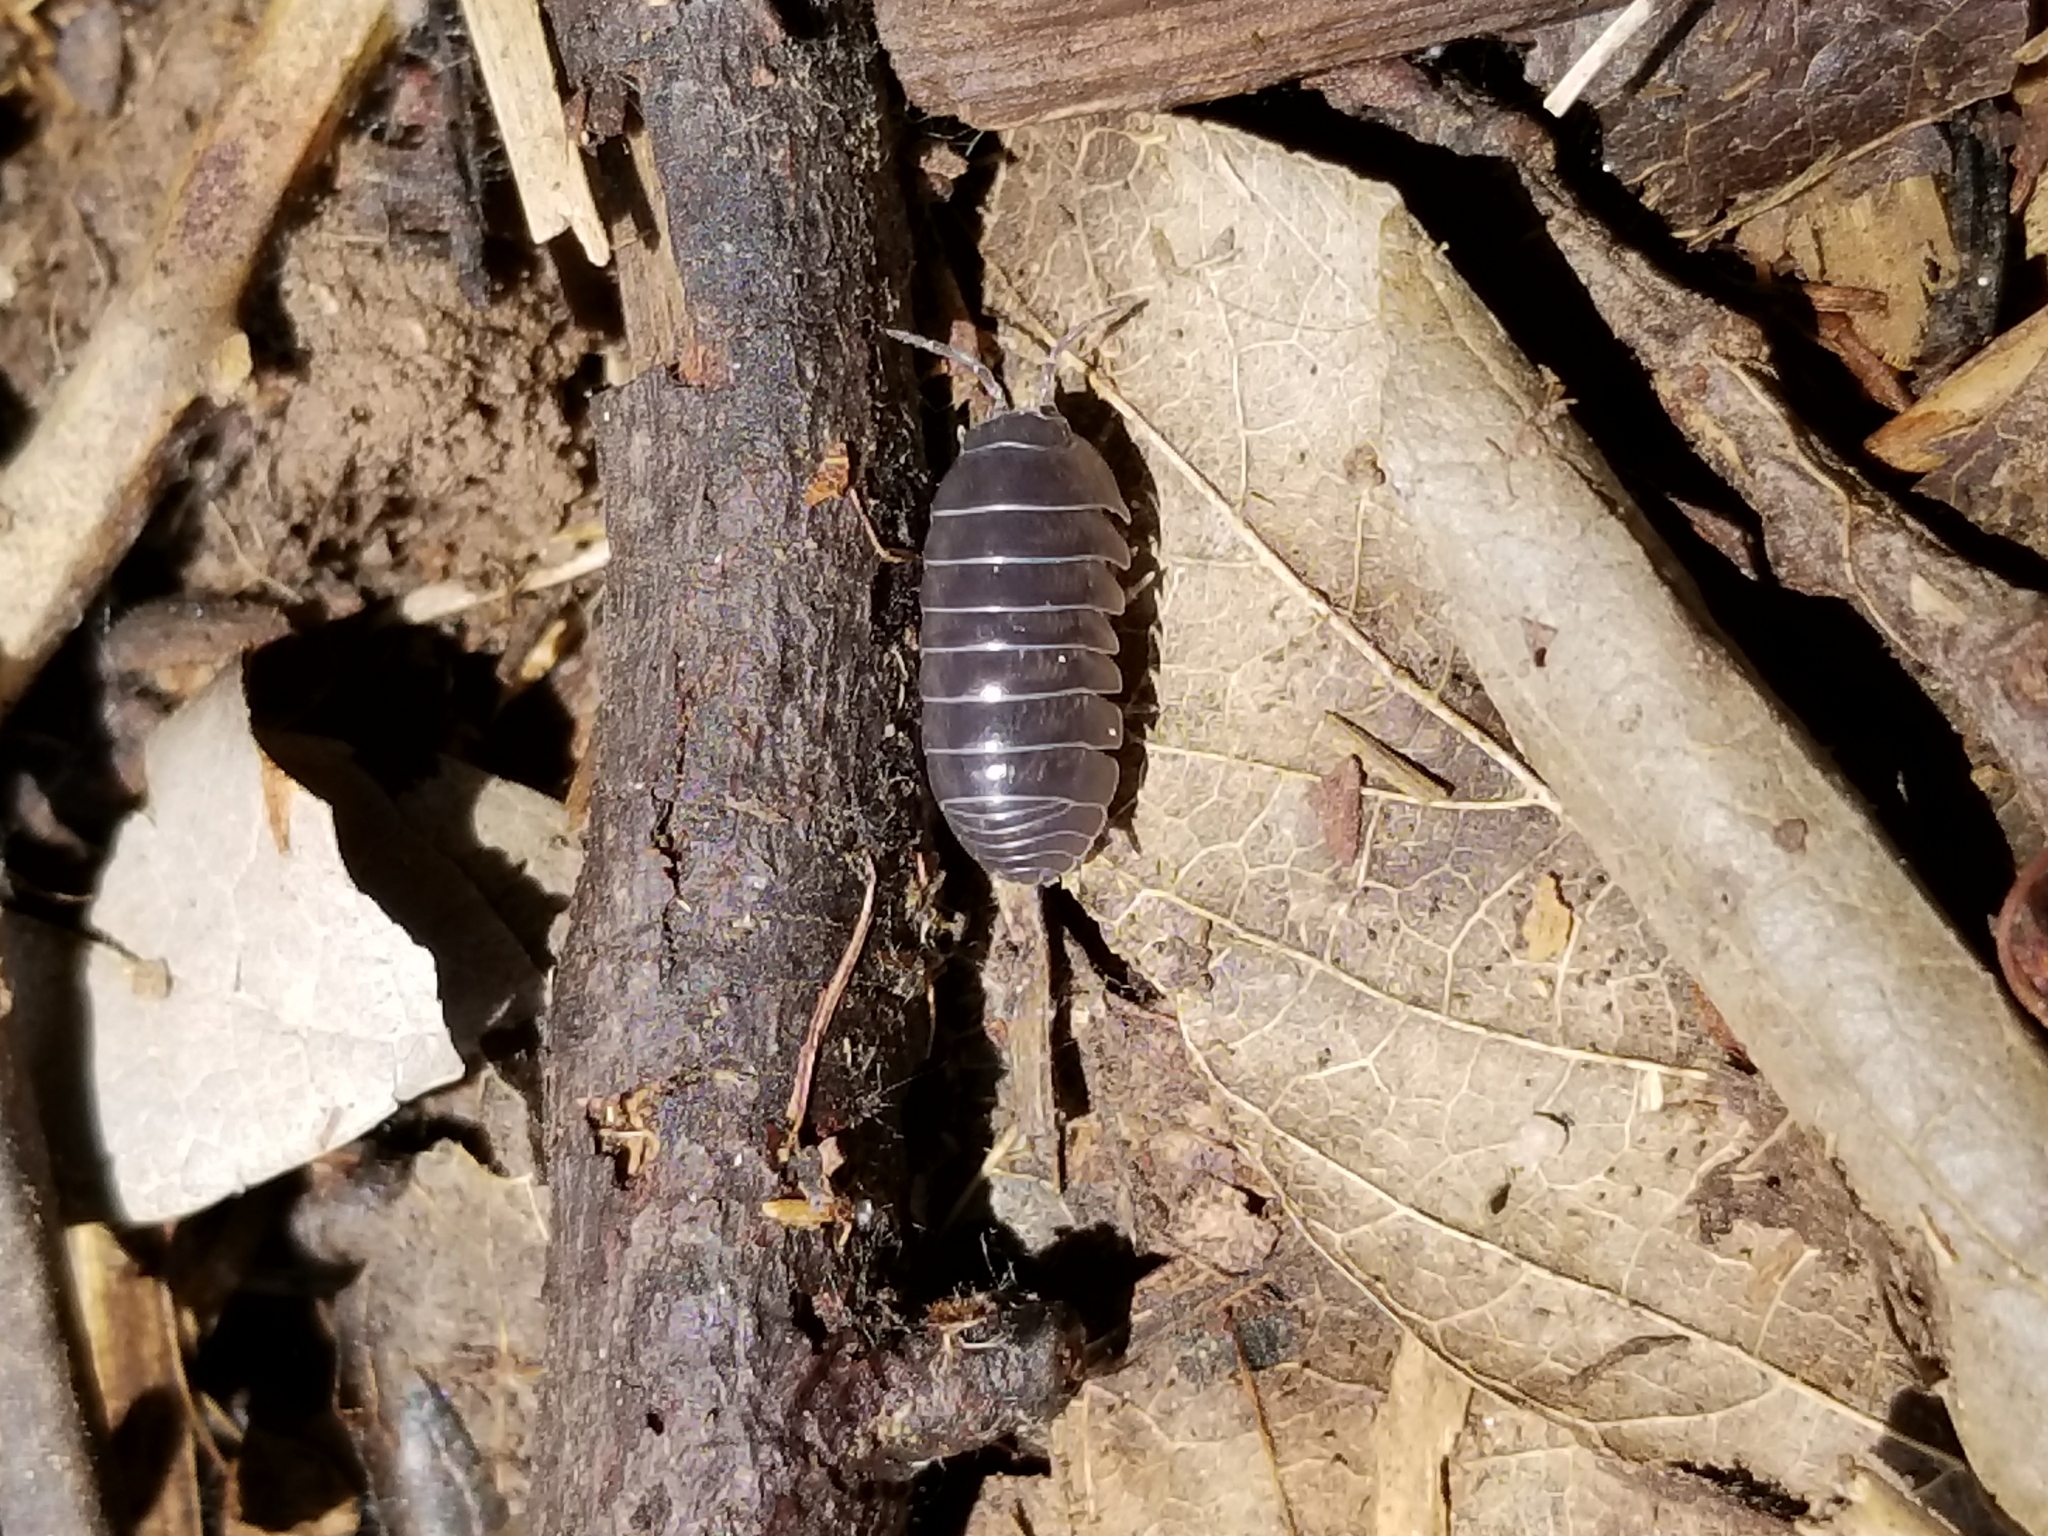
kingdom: Animalia
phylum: Arthropoda
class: Malacostraca
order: Isopoda
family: Armadillidiidae
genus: Armadillidium
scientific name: Armadillidium vulgare
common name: Common pill woodlouse
